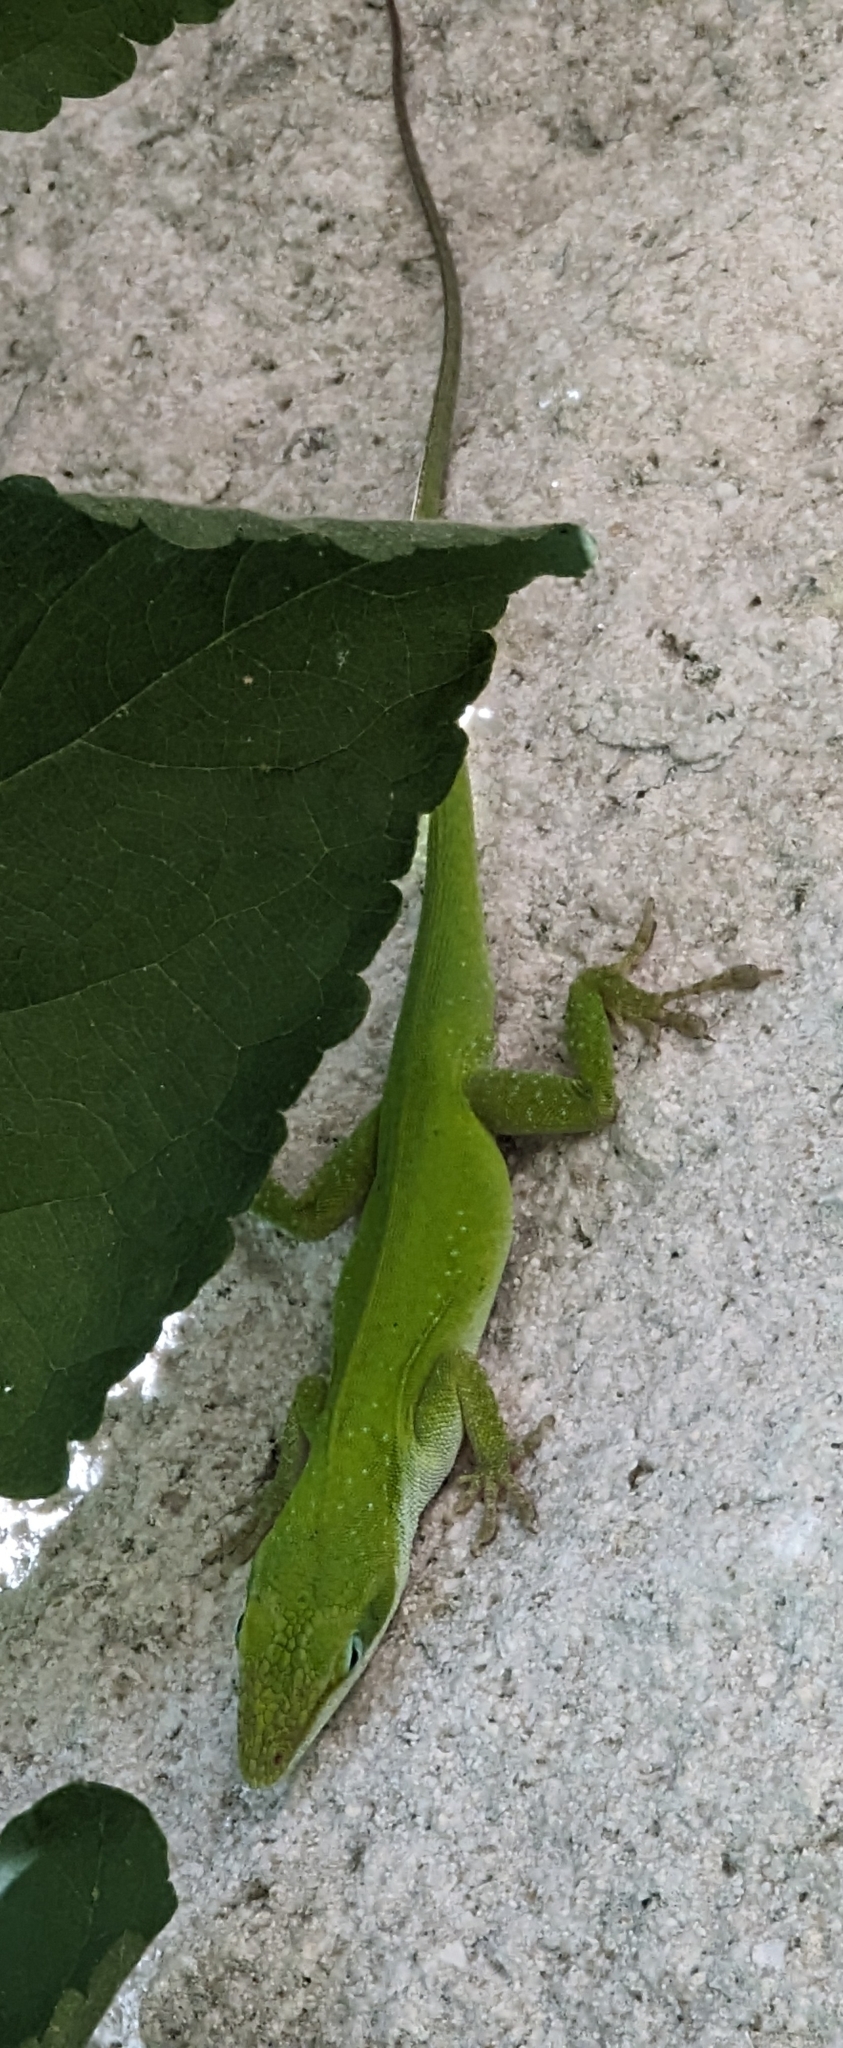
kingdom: Animalia
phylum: Chordata
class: Squamata
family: Dactyloidae
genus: Anolis
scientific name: Anolis carolinensis
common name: Green anole
